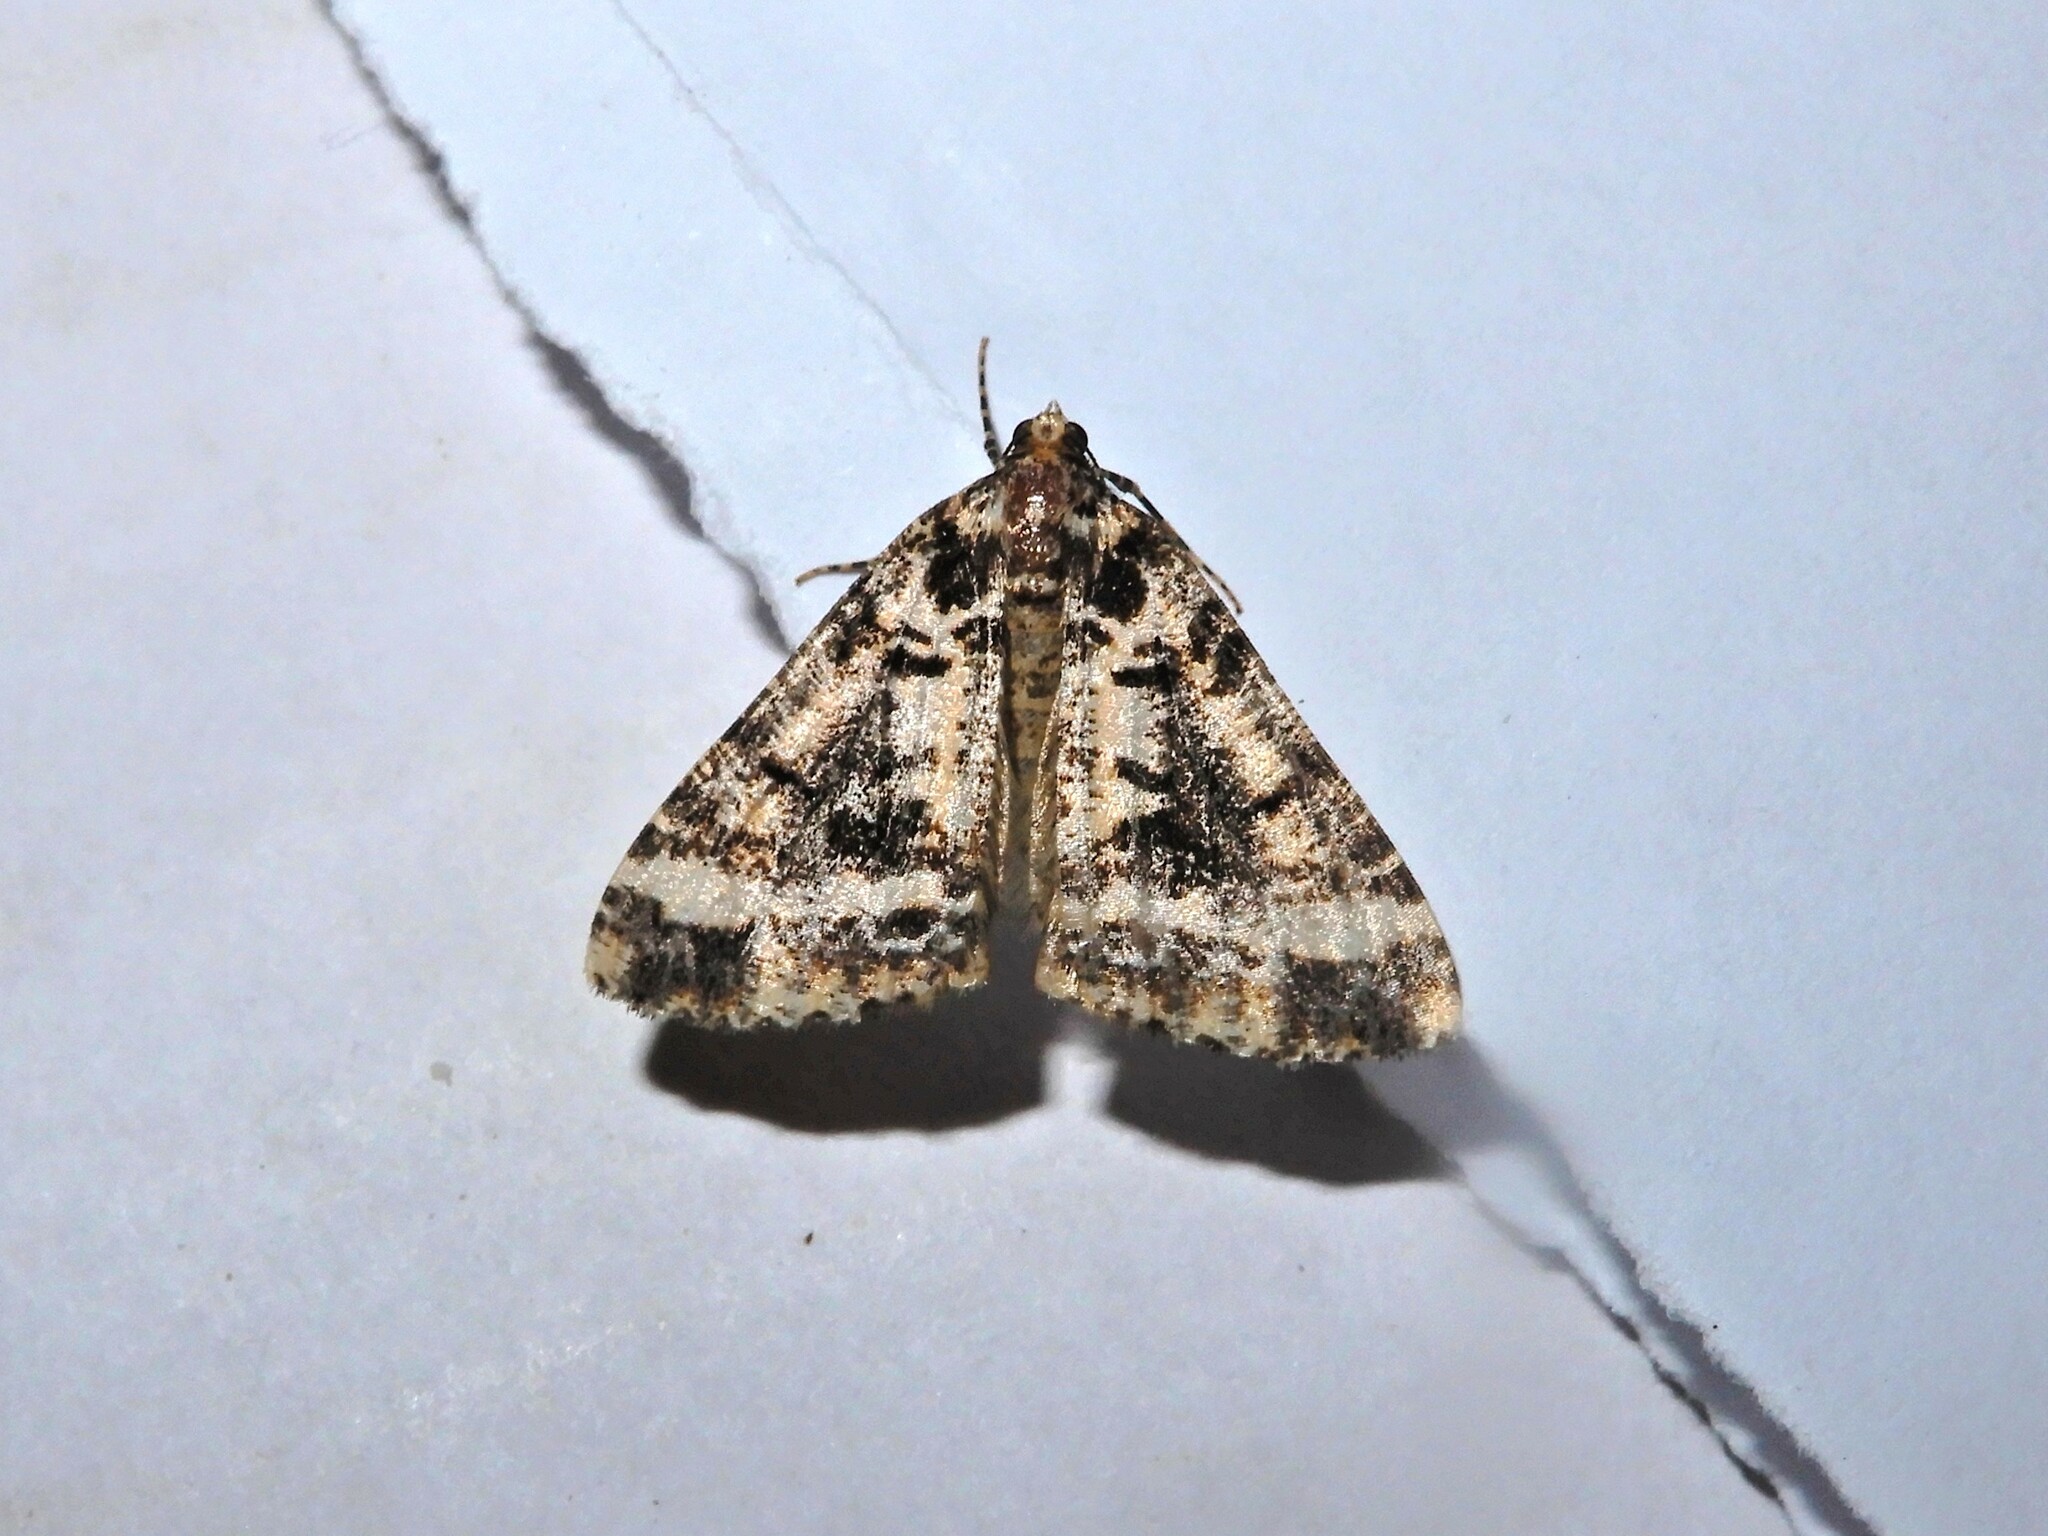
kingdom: Animalia
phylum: Arthropoda
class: Insecta
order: Lepidoptera
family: Geometridae
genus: Pseudocoremia
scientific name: Pseudocoremia leucelaea
